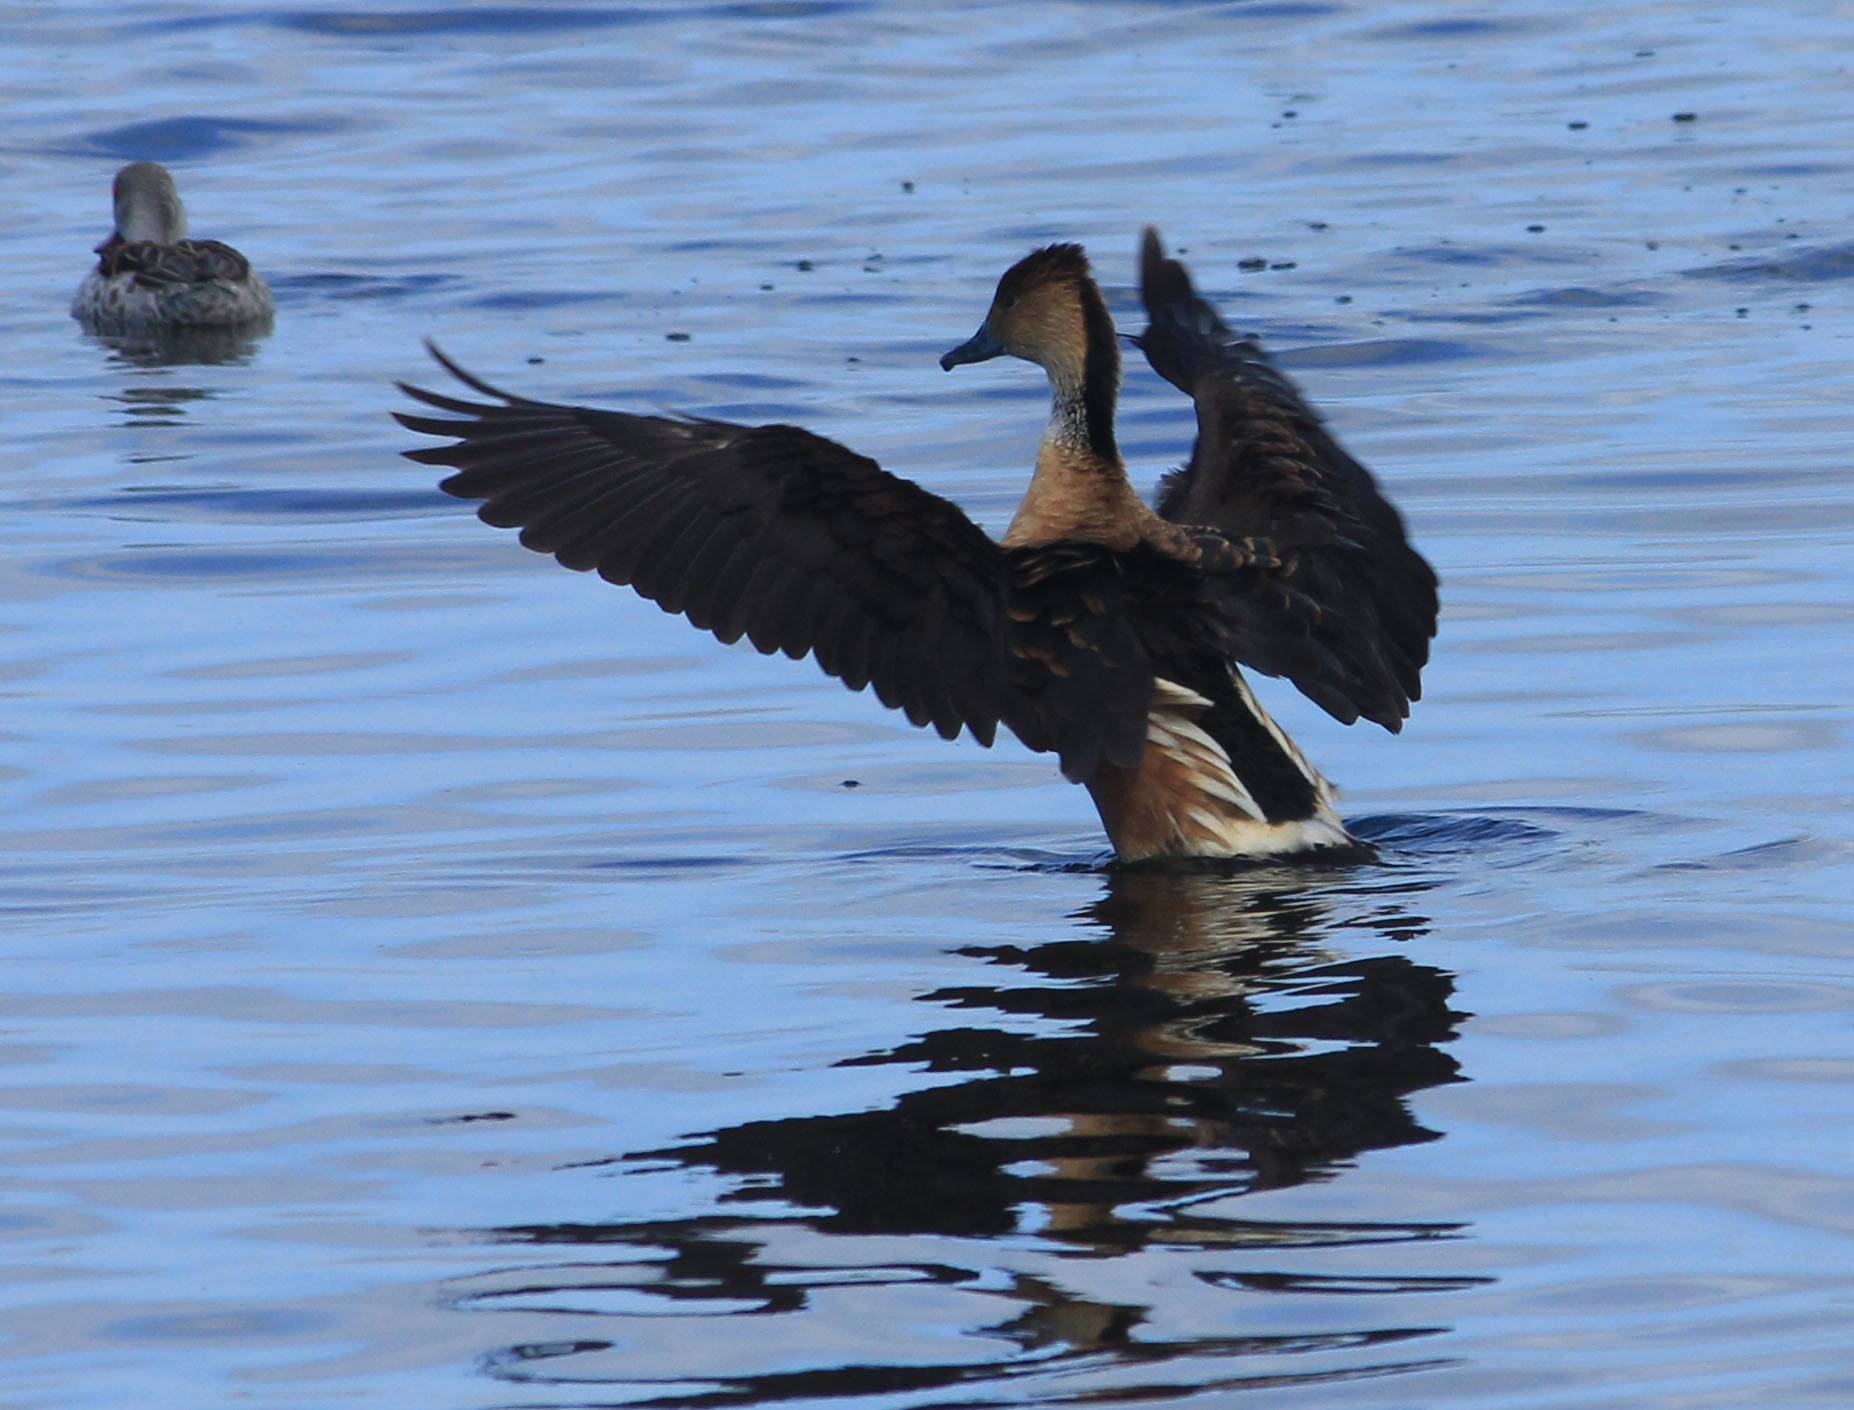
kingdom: Animalia
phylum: Chordata
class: Aves
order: Anseriformes
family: Anatidae
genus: Dendrocygna
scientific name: Dendrocygna bicolor
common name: Fulvous whistling duck
